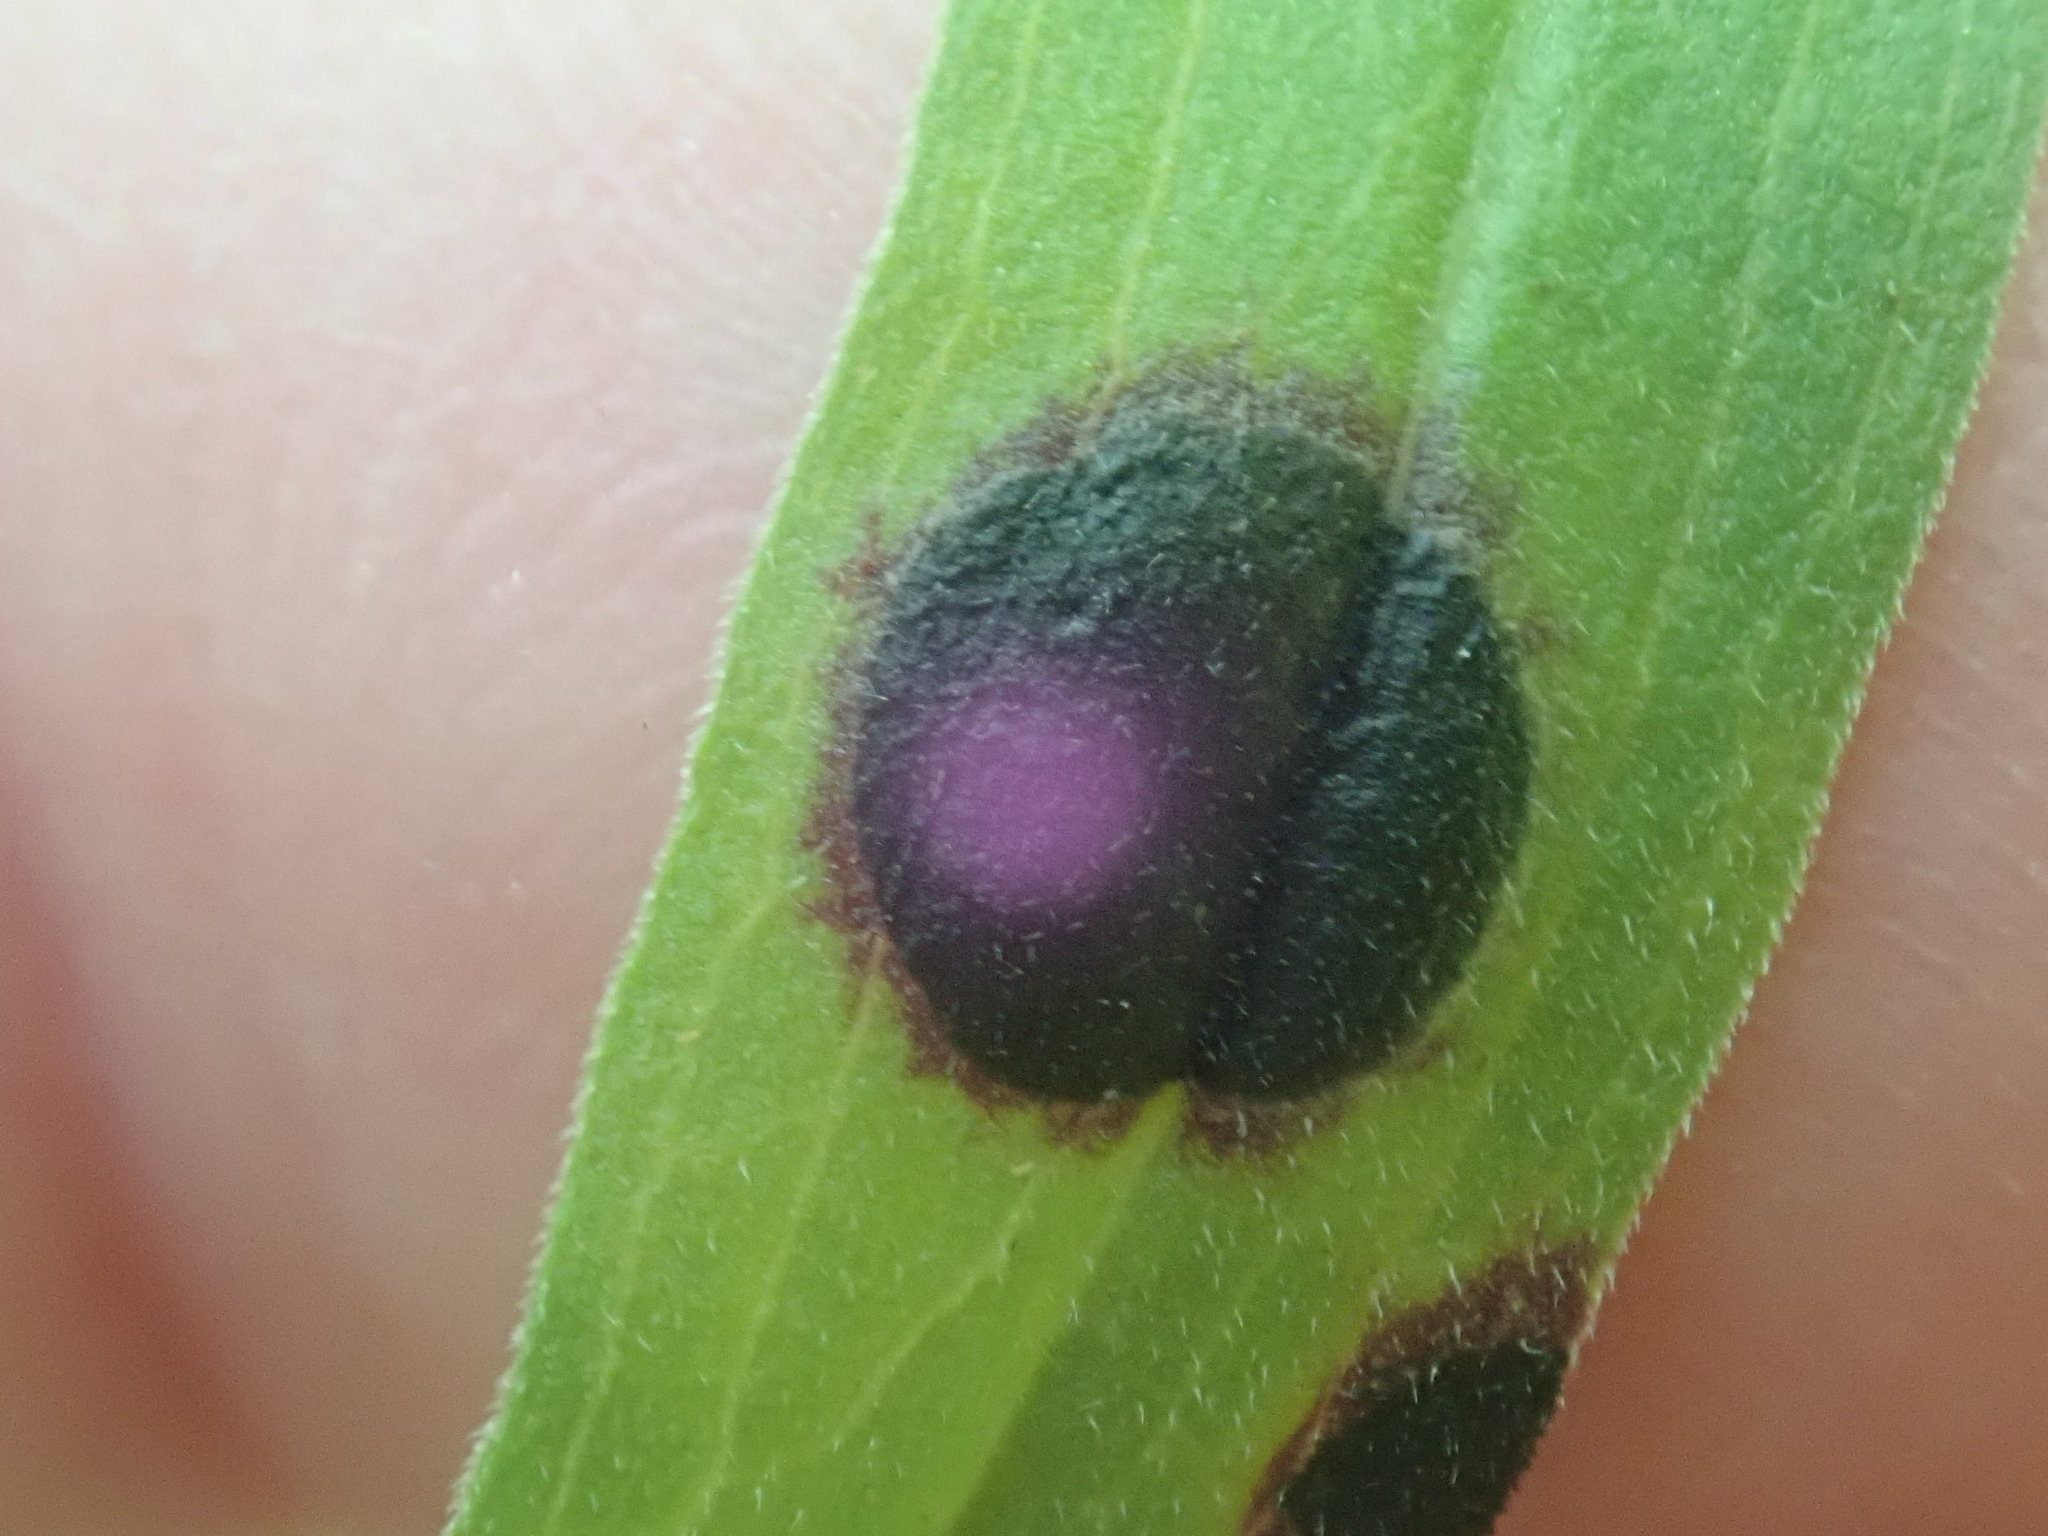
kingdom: Animalia
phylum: Arthropoda
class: Insecta
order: Diptera
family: Cecidomyiidae
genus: Asteromyia
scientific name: Asteromyia euthamiae
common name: Euthamia leaf gall midge
